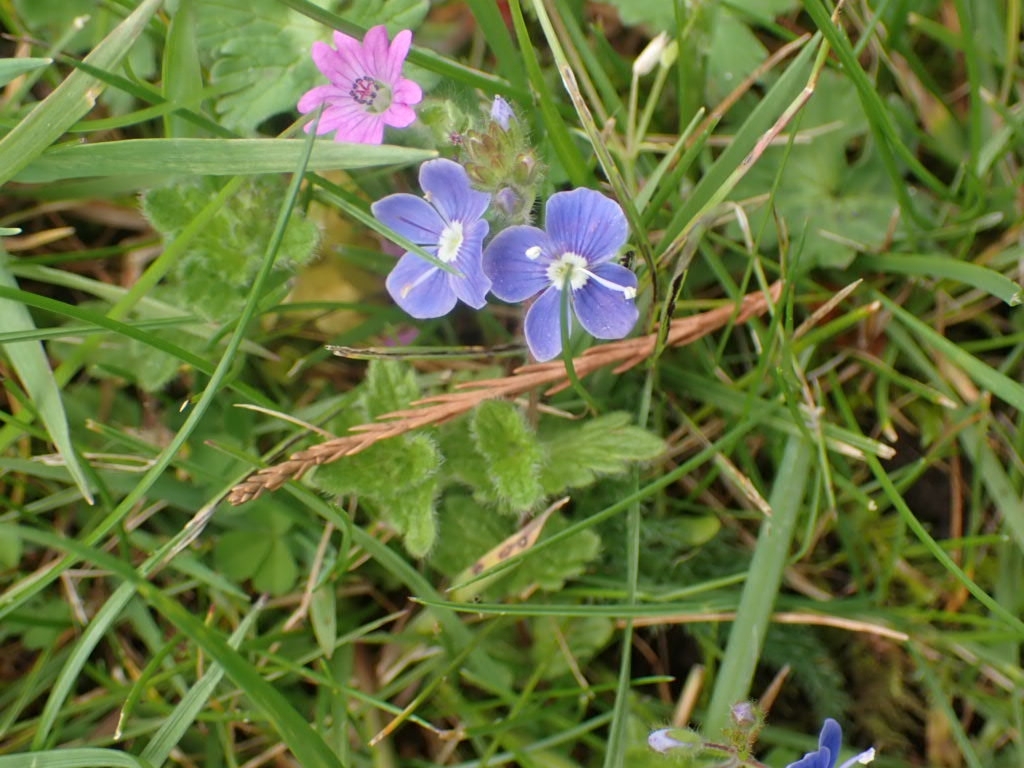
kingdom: Plantae
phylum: Tracheophyta
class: Magnoliopsida
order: Lamiales
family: Plantaginaceae
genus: Veronica
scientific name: Veronica chamaedrys
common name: Germander speedwell
